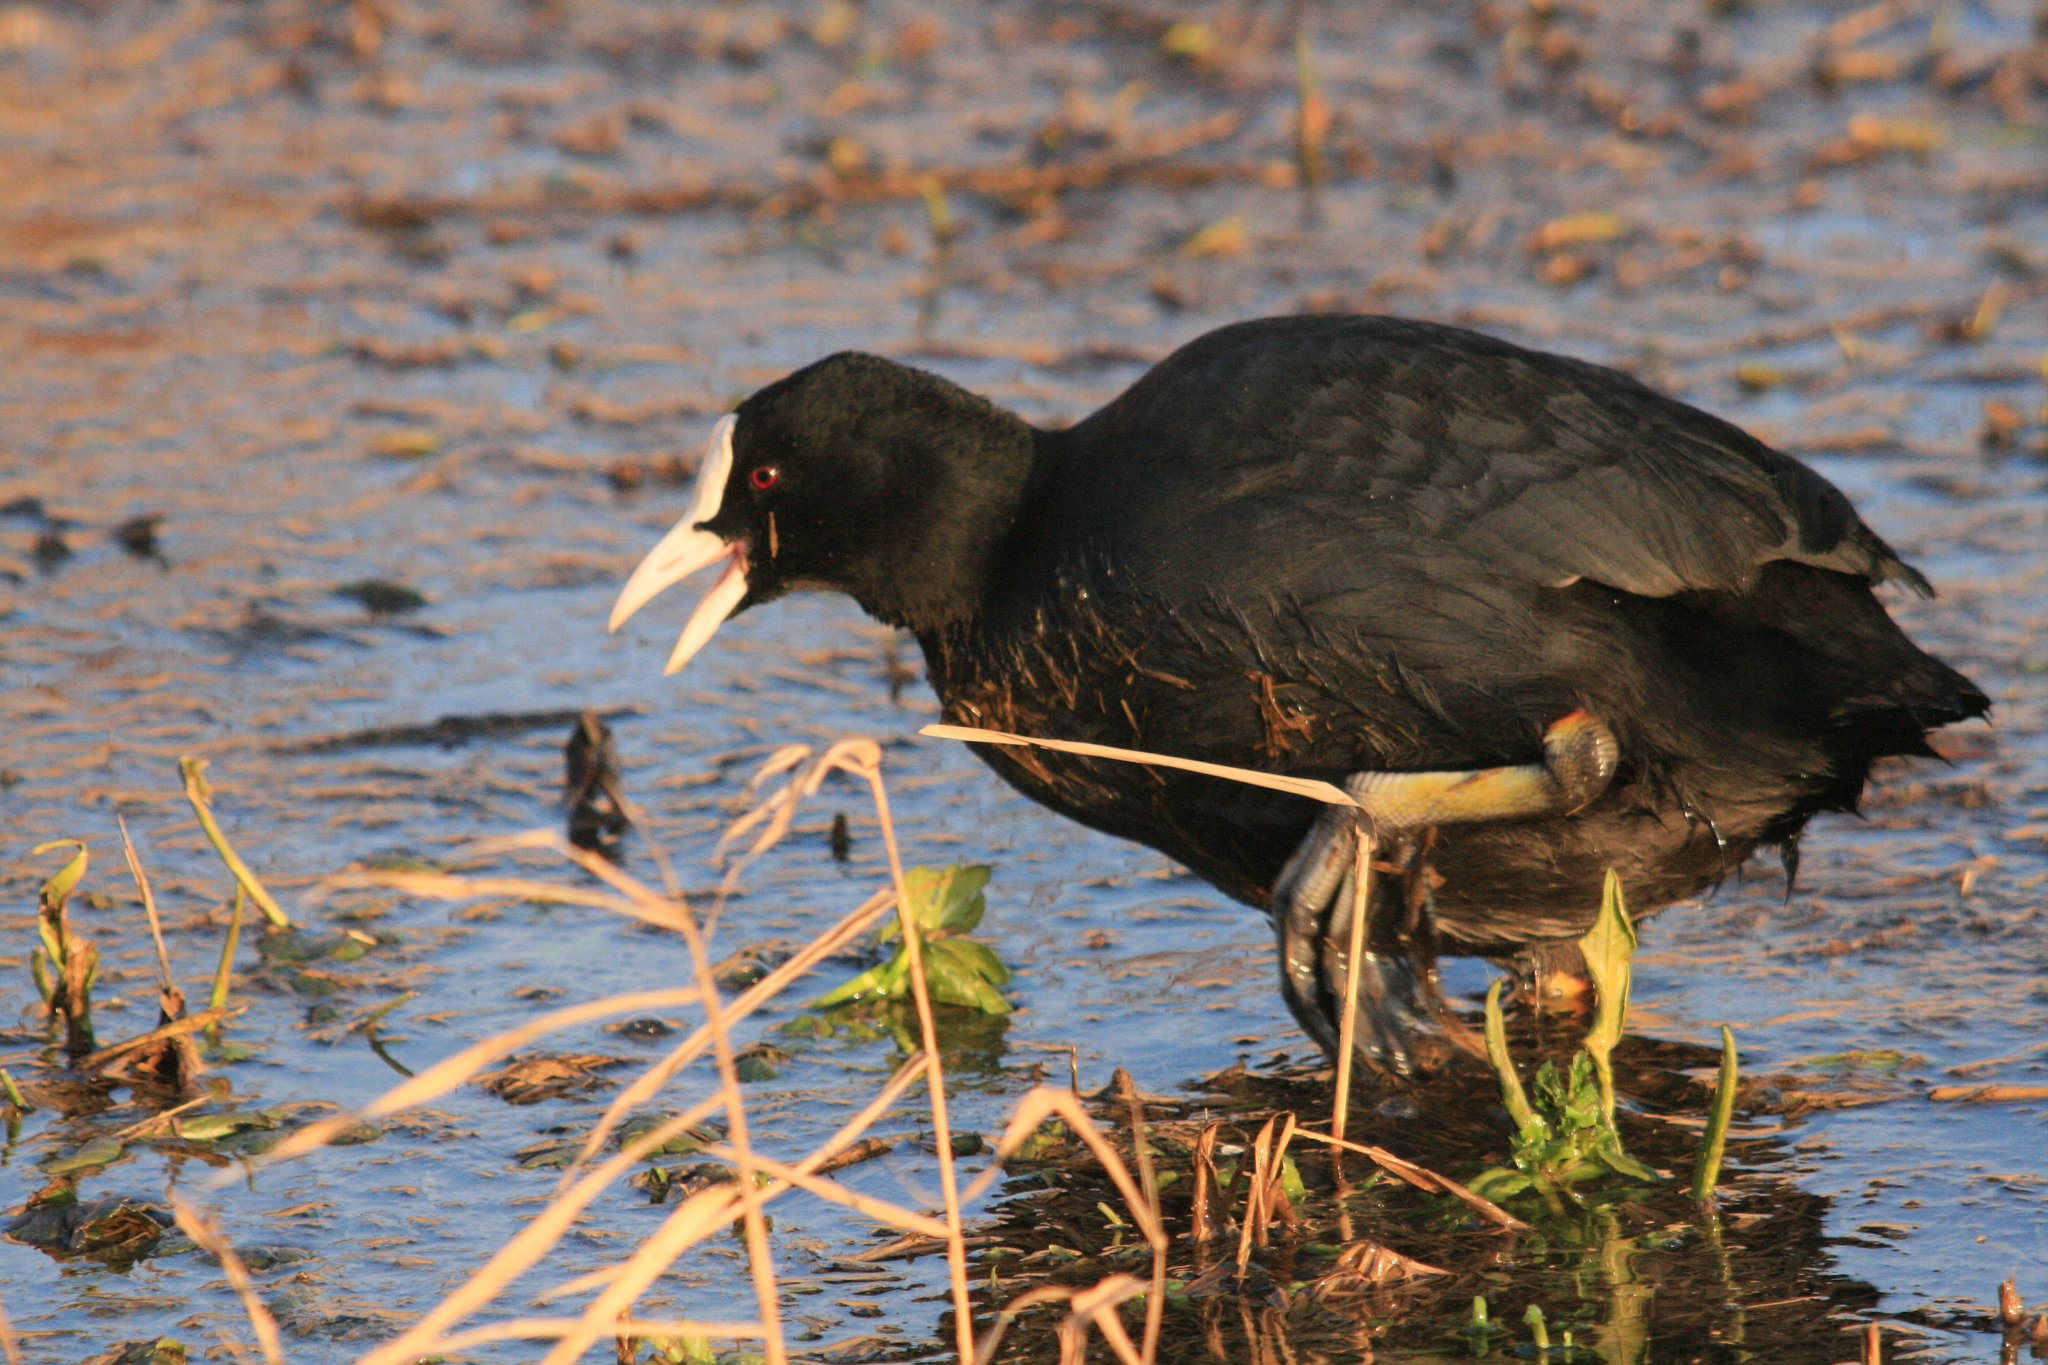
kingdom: Animalia
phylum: Chordata
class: Aves
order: Gruiformes
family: Rallidae
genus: Fulica
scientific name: Fulica atra
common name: Eurasian coot
